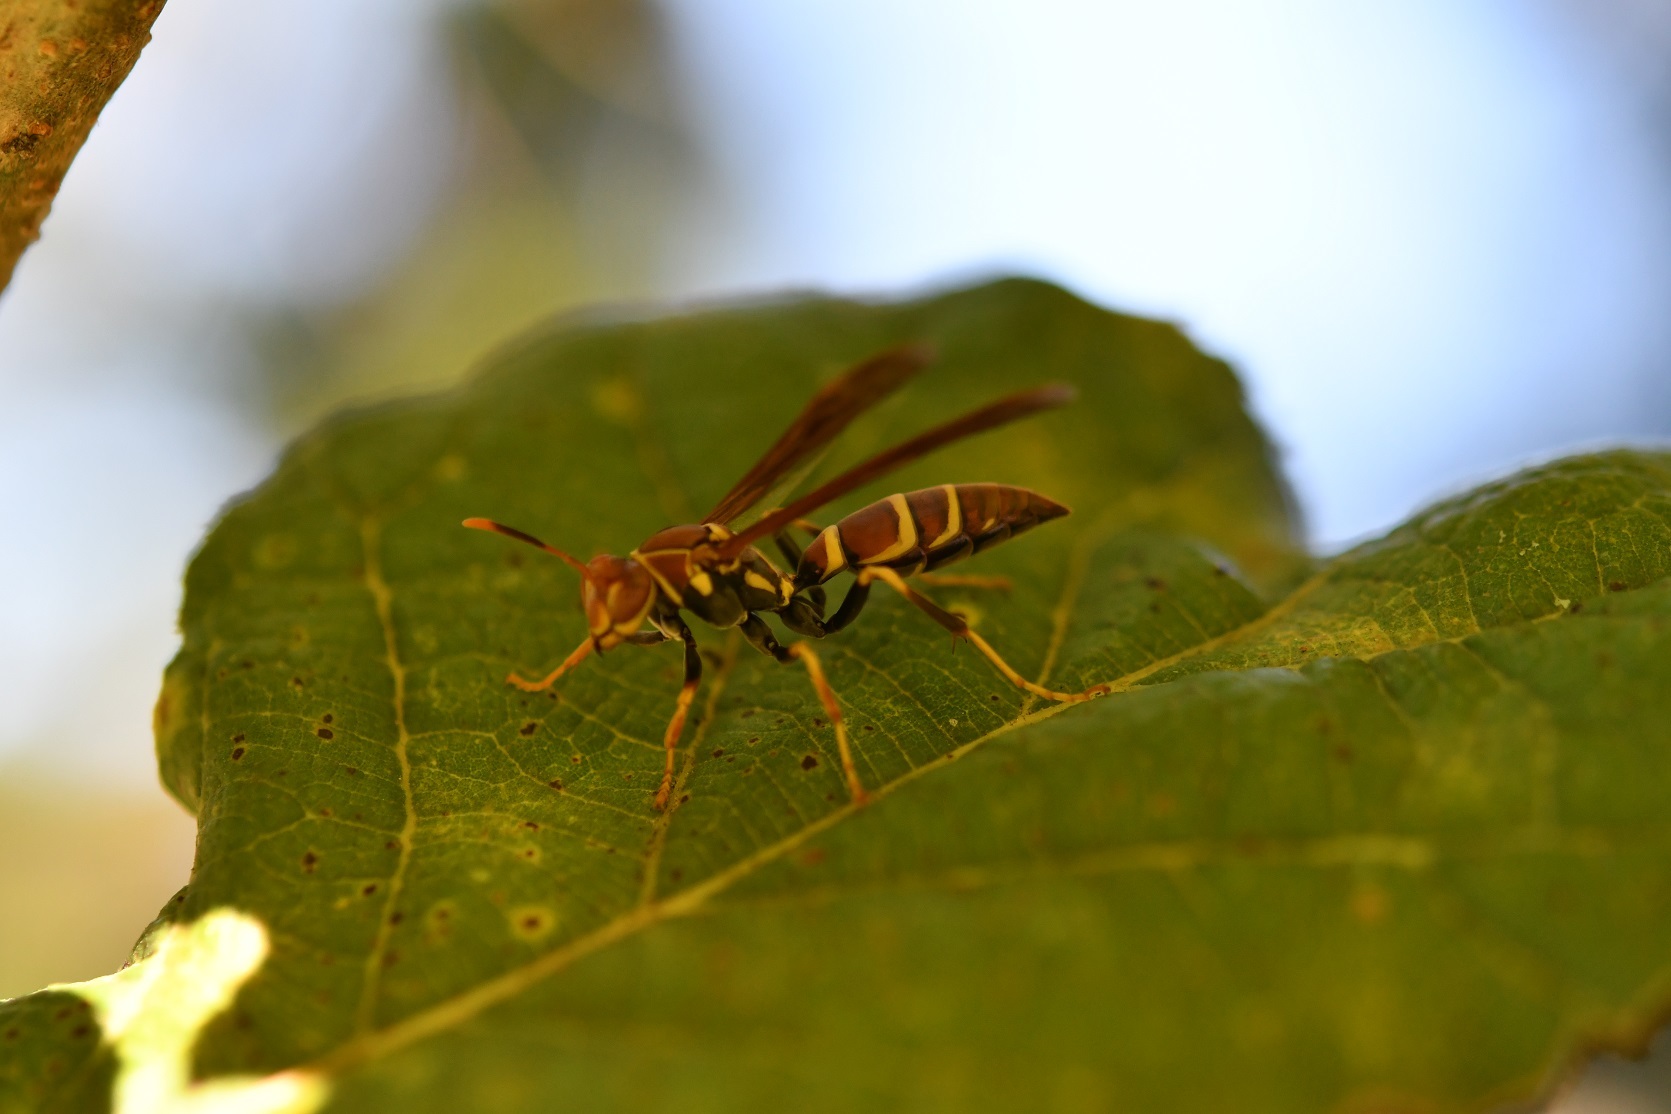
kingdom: Animalia
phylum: Arthropoda
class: Insecta
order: Hymenoptera
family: Eumenidae
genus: Polistes
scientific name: Polistes instabilis
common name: Unstable paper wasp
